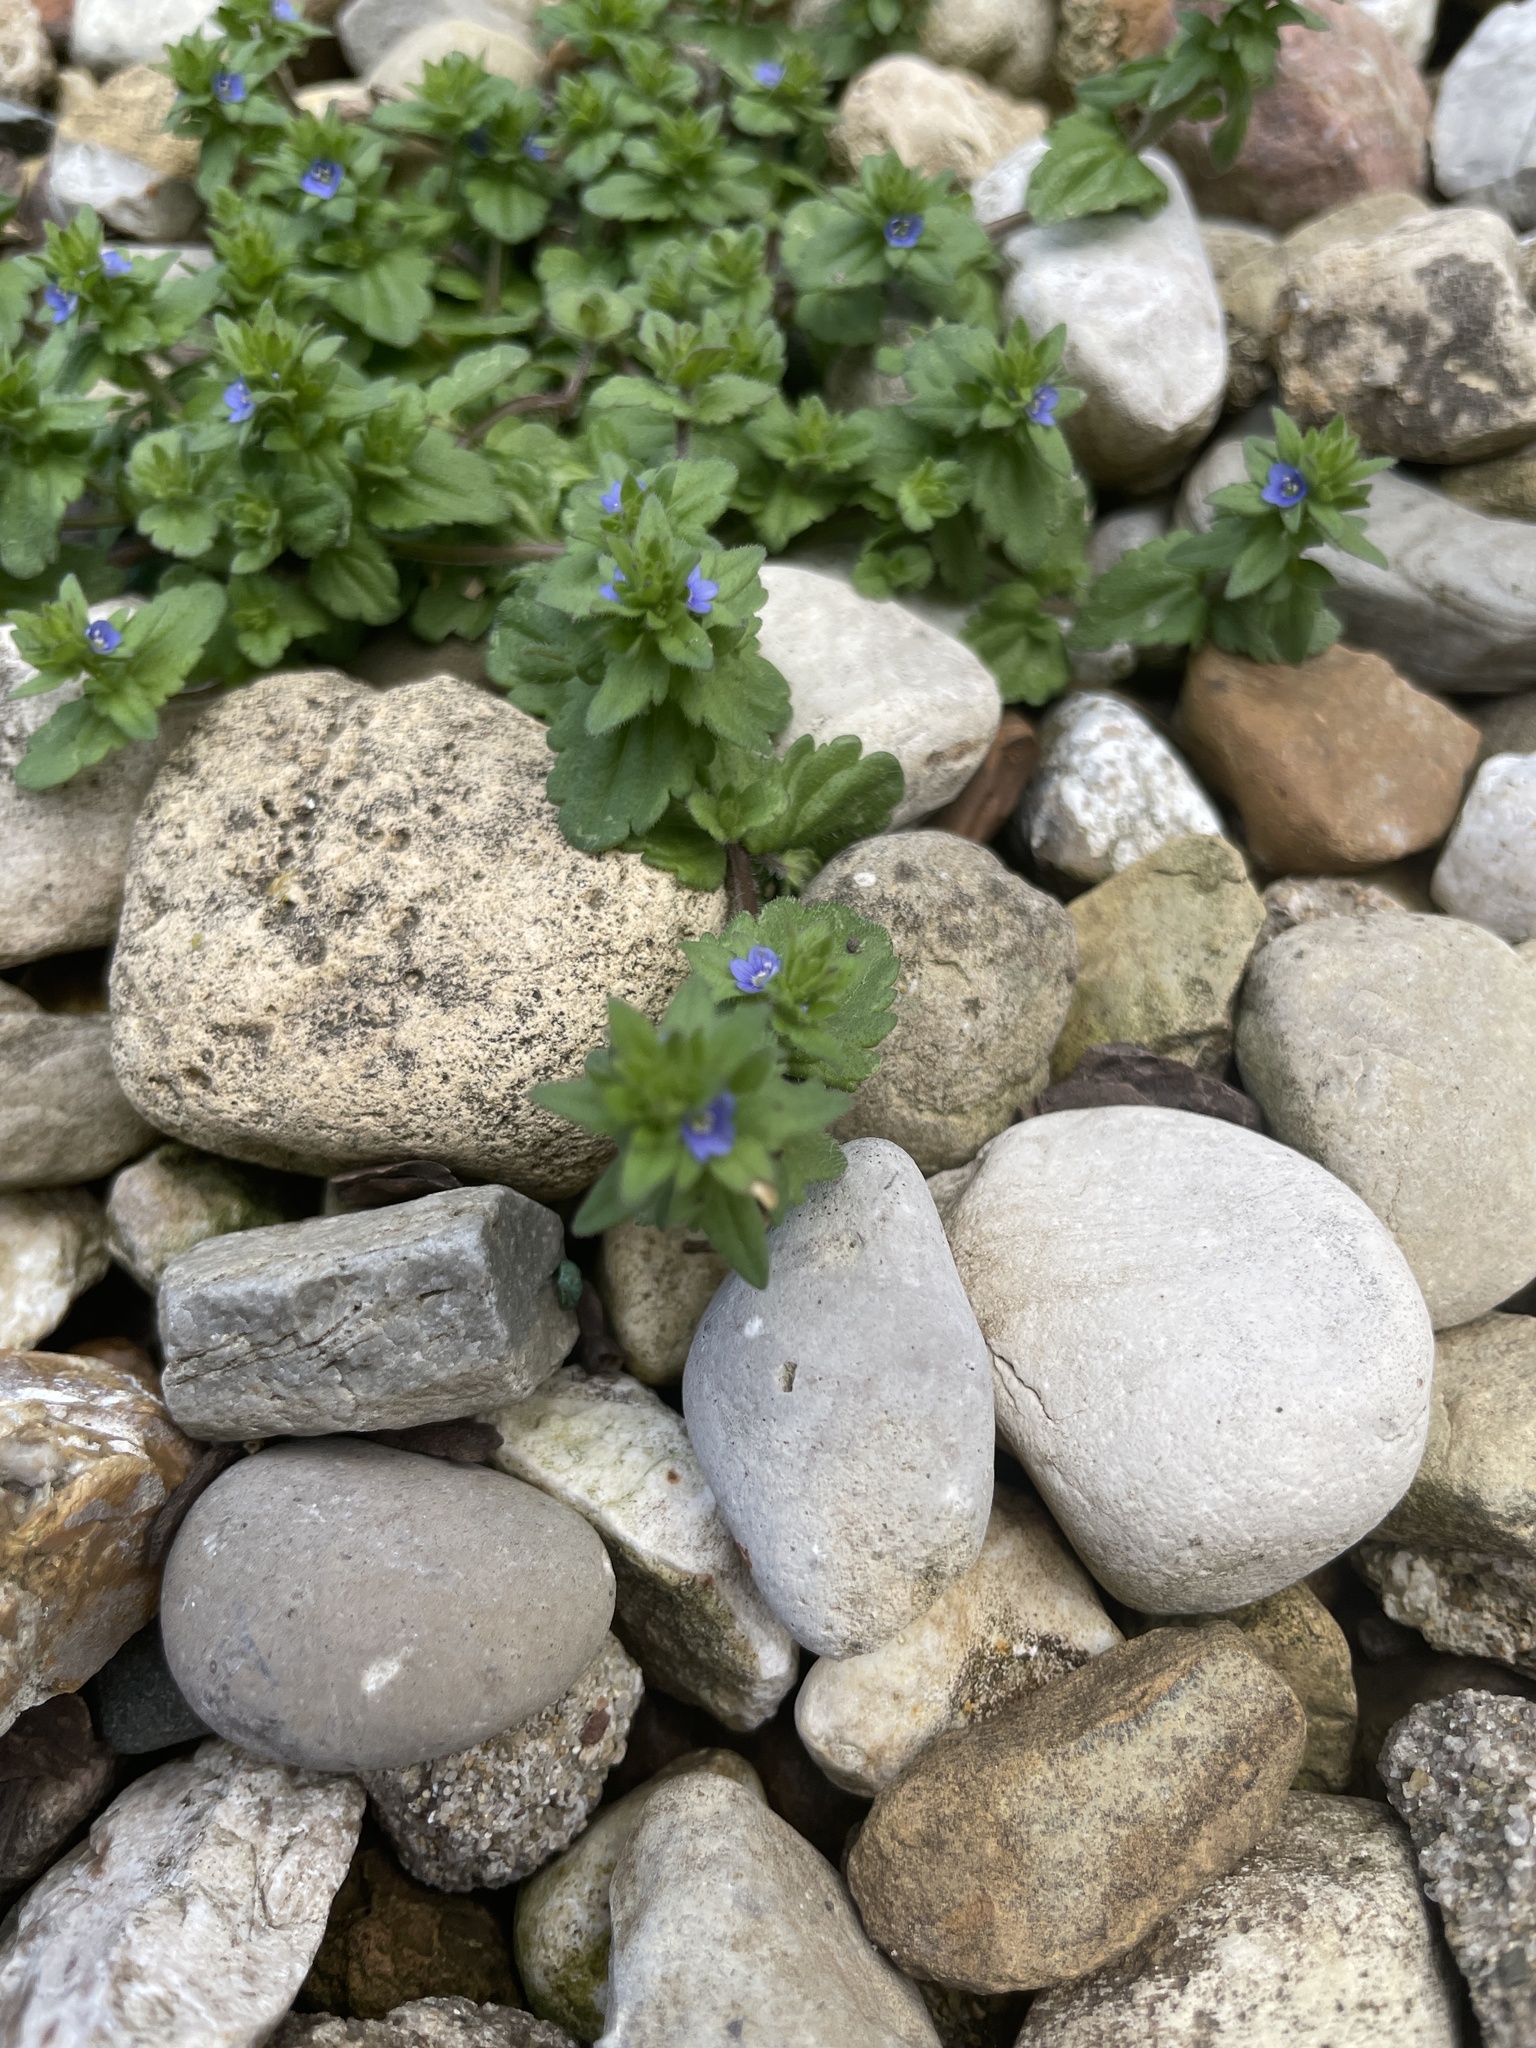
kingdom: Plantae
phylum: Tracheophyta
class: Magnoliopsida
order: Lamiales
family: Plantaginaceae
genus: Veronica
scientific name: Veronica arvensis
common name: Corn speedwell
